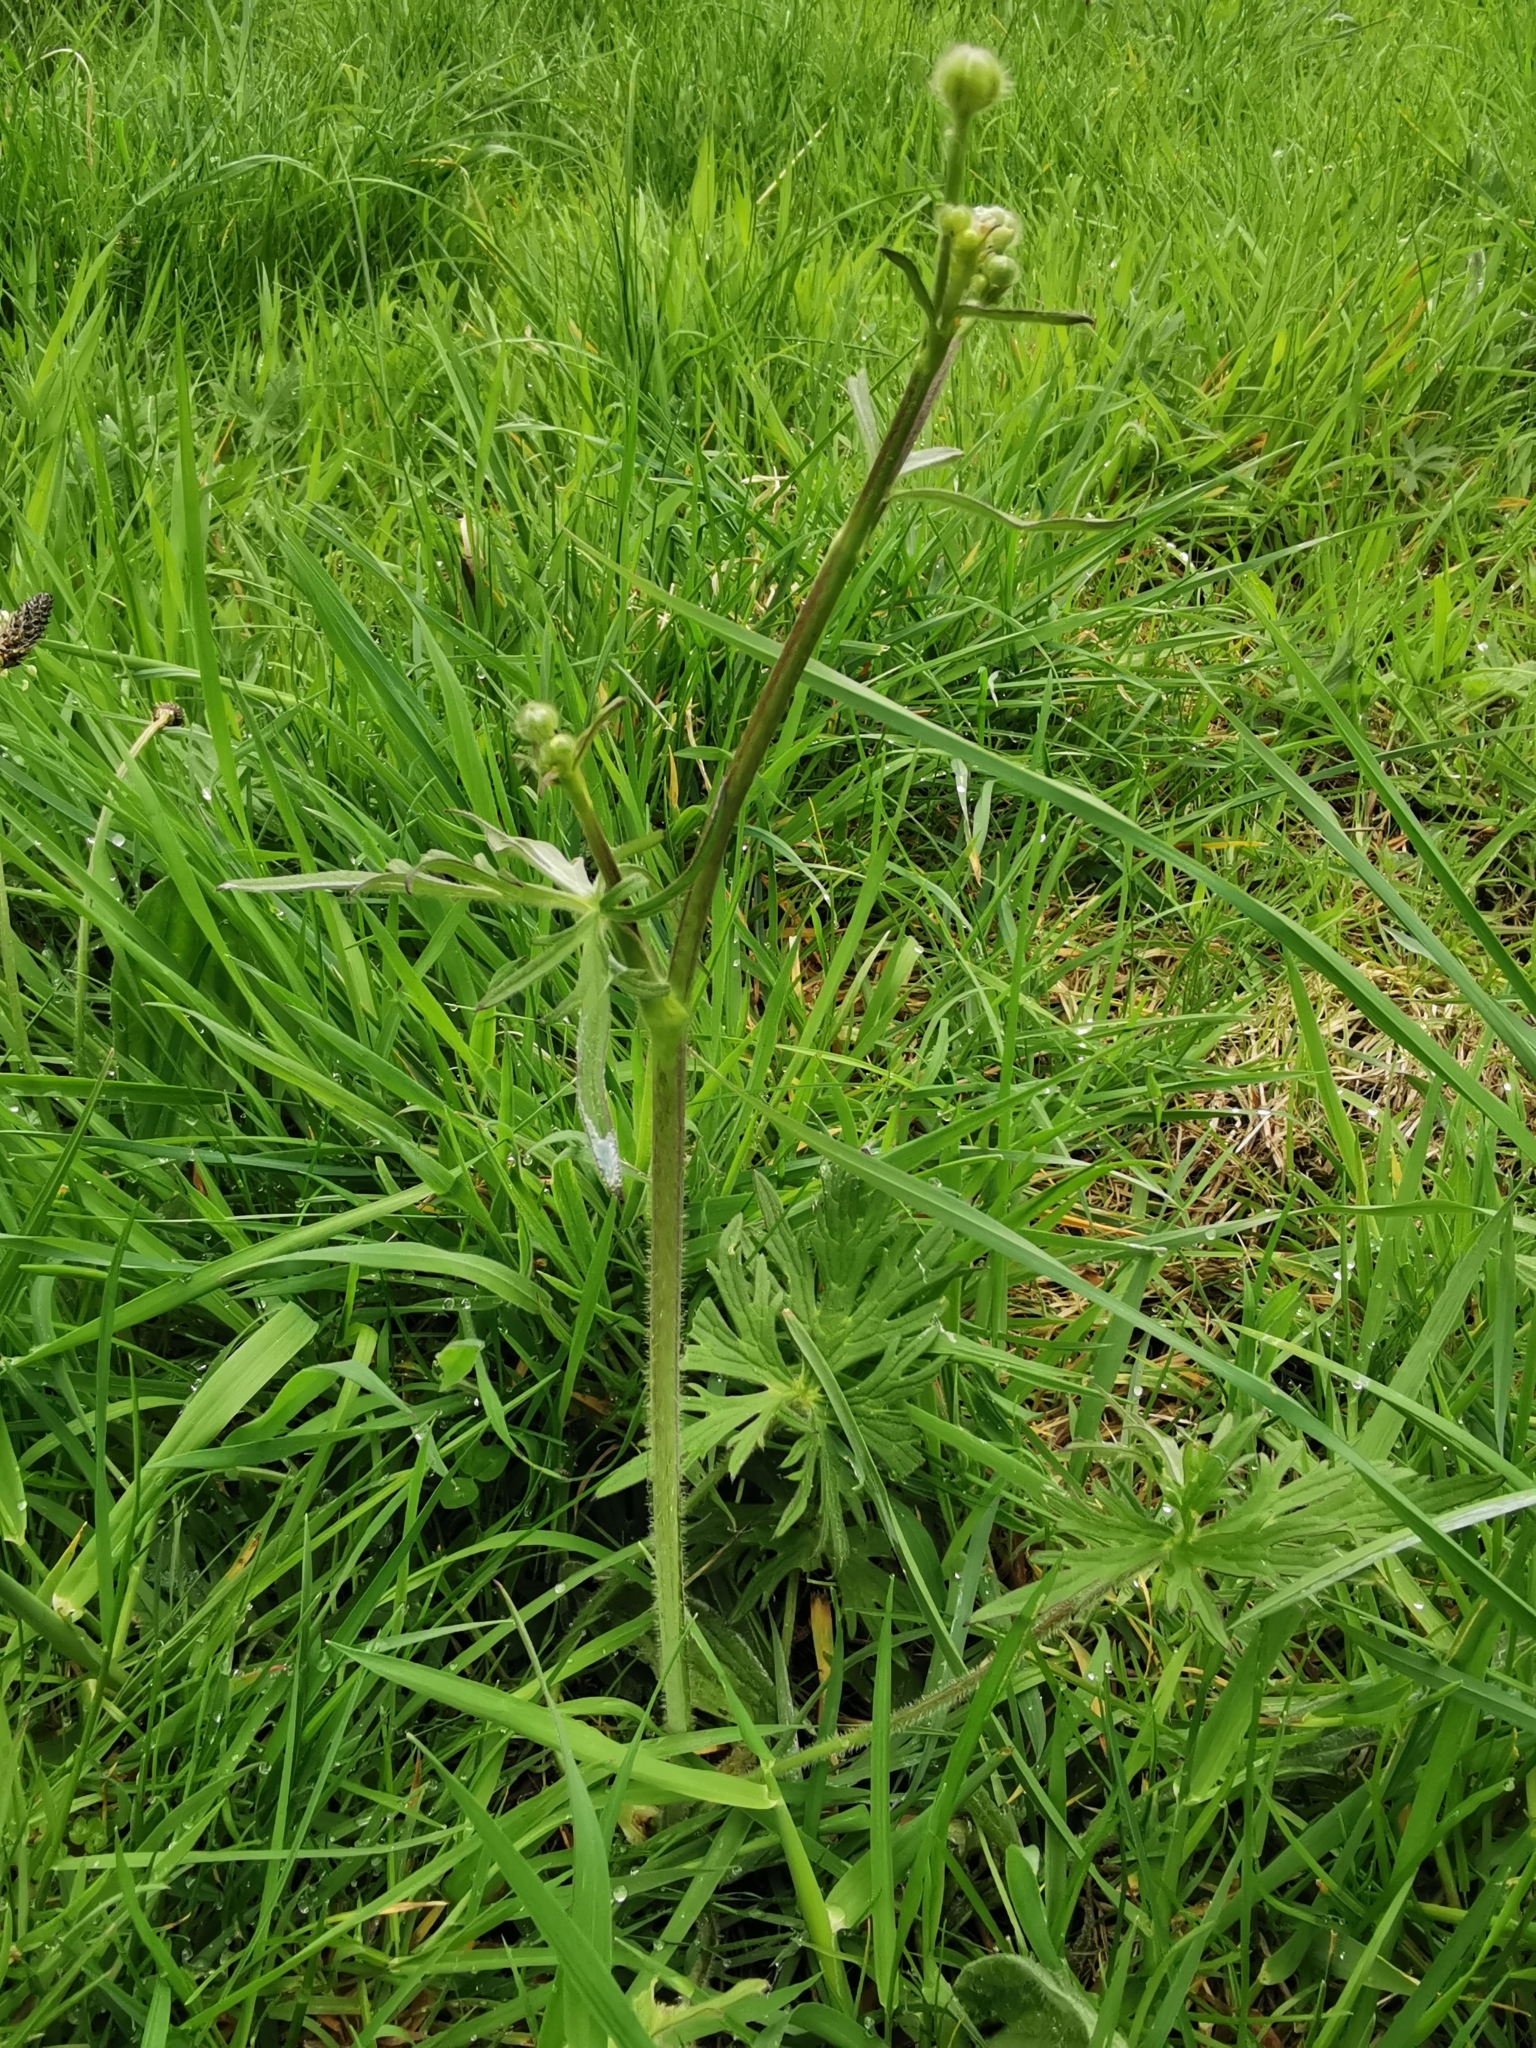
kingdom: Plantae
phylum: Tracheophyta
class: Magnoliopsida
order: Ranunculales
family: Ranunculaceae
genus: Ranunculus
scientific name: Ranunculus acris
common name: Meadow buttercup
